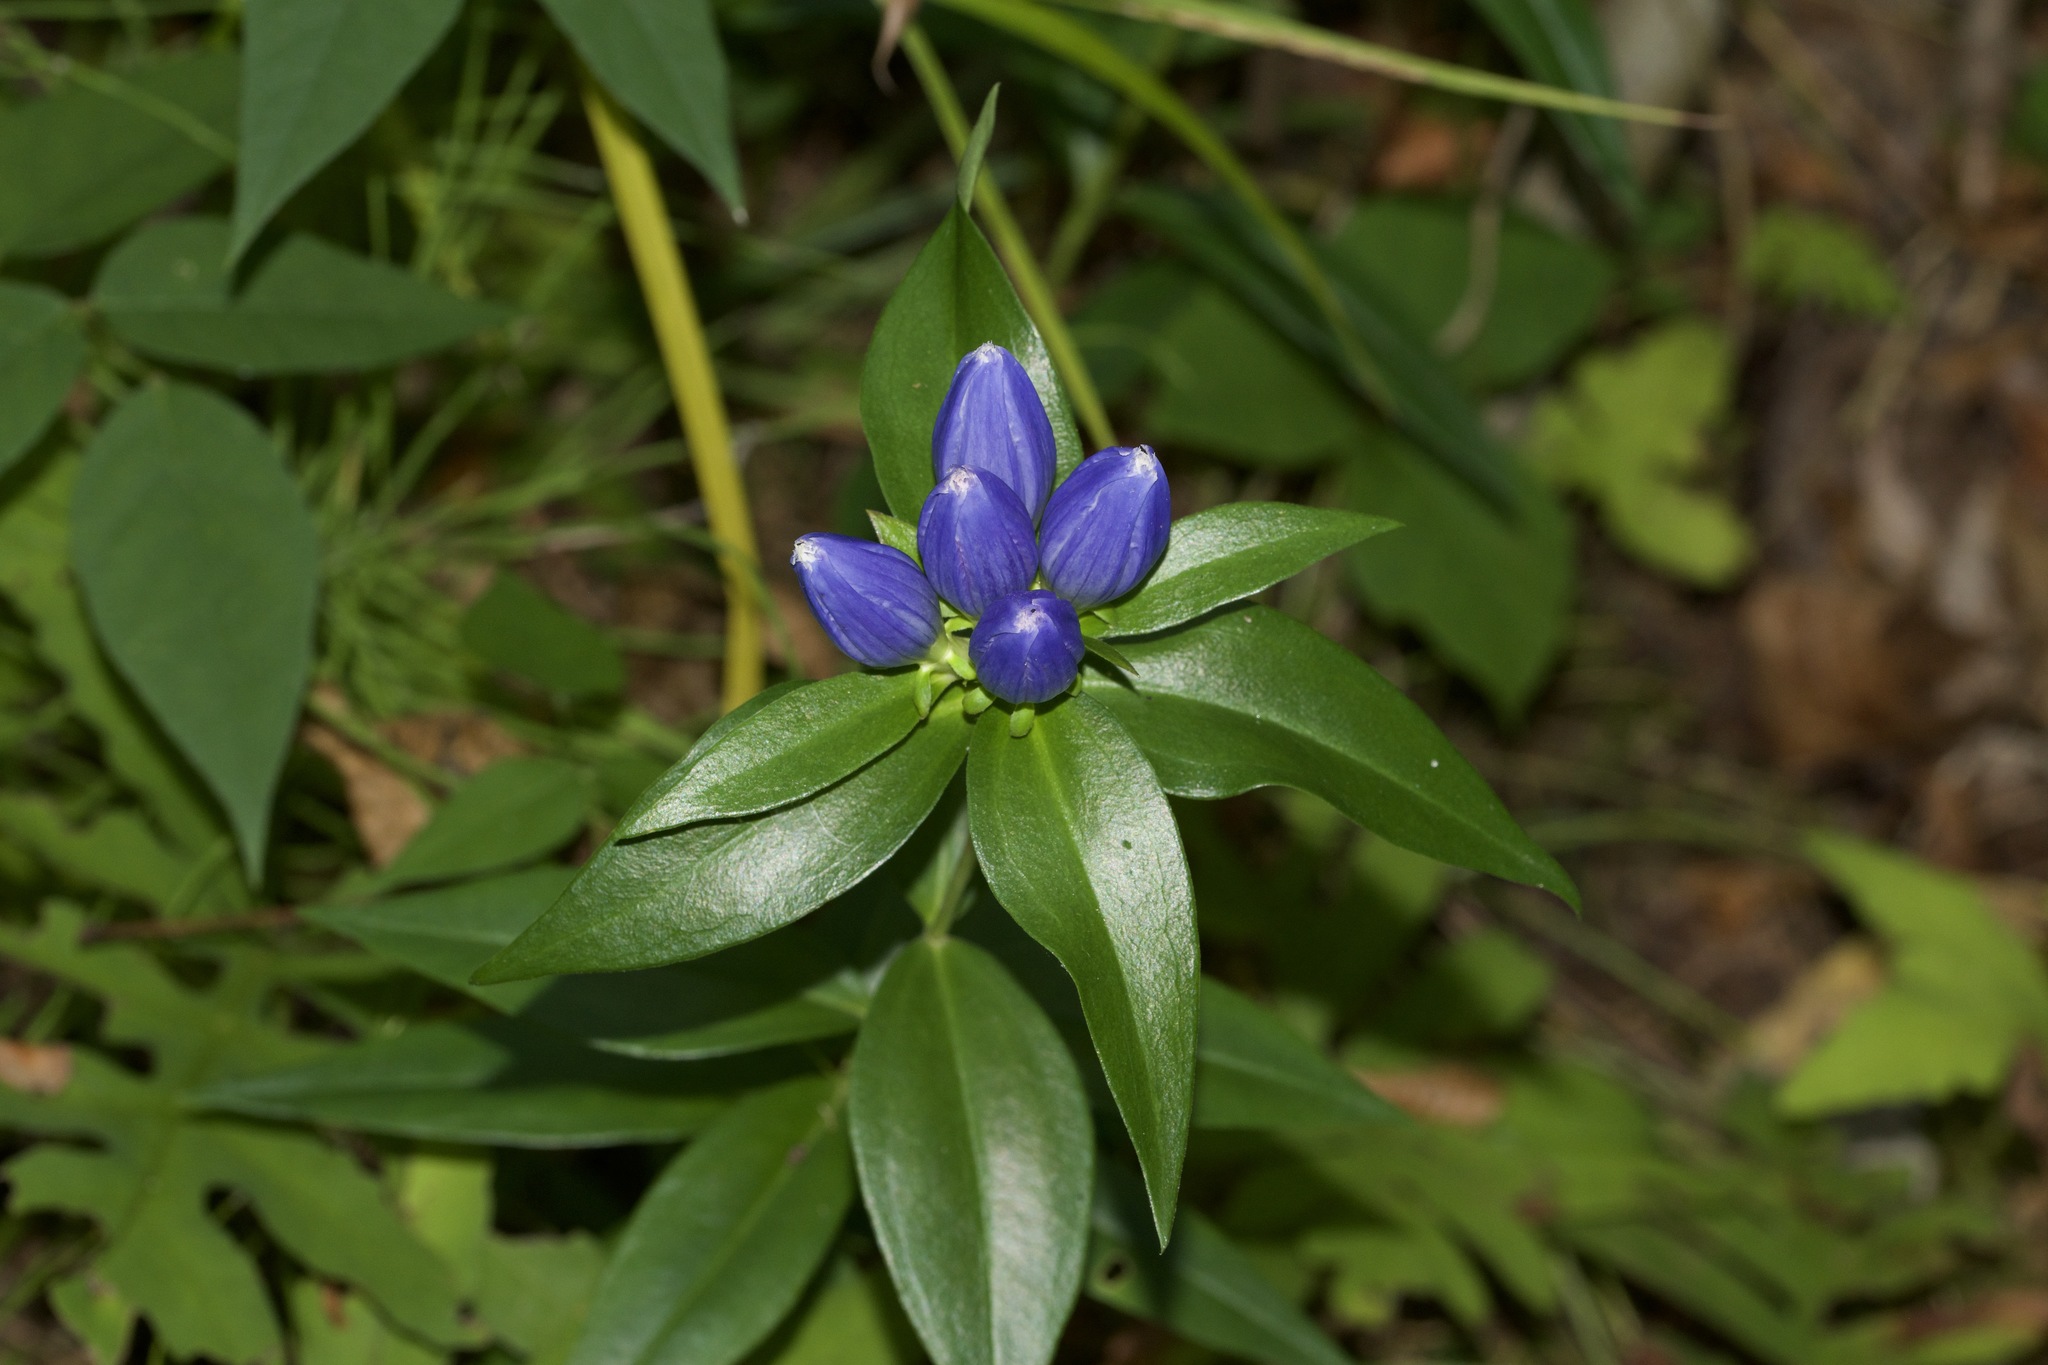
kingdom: Plantae
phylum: Tracheophyta
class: Magnoliopsida
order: Gentianales
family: Gentianaceae
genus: Gentiana
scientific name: Gentiana andrewsii
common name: Bottle gentian
